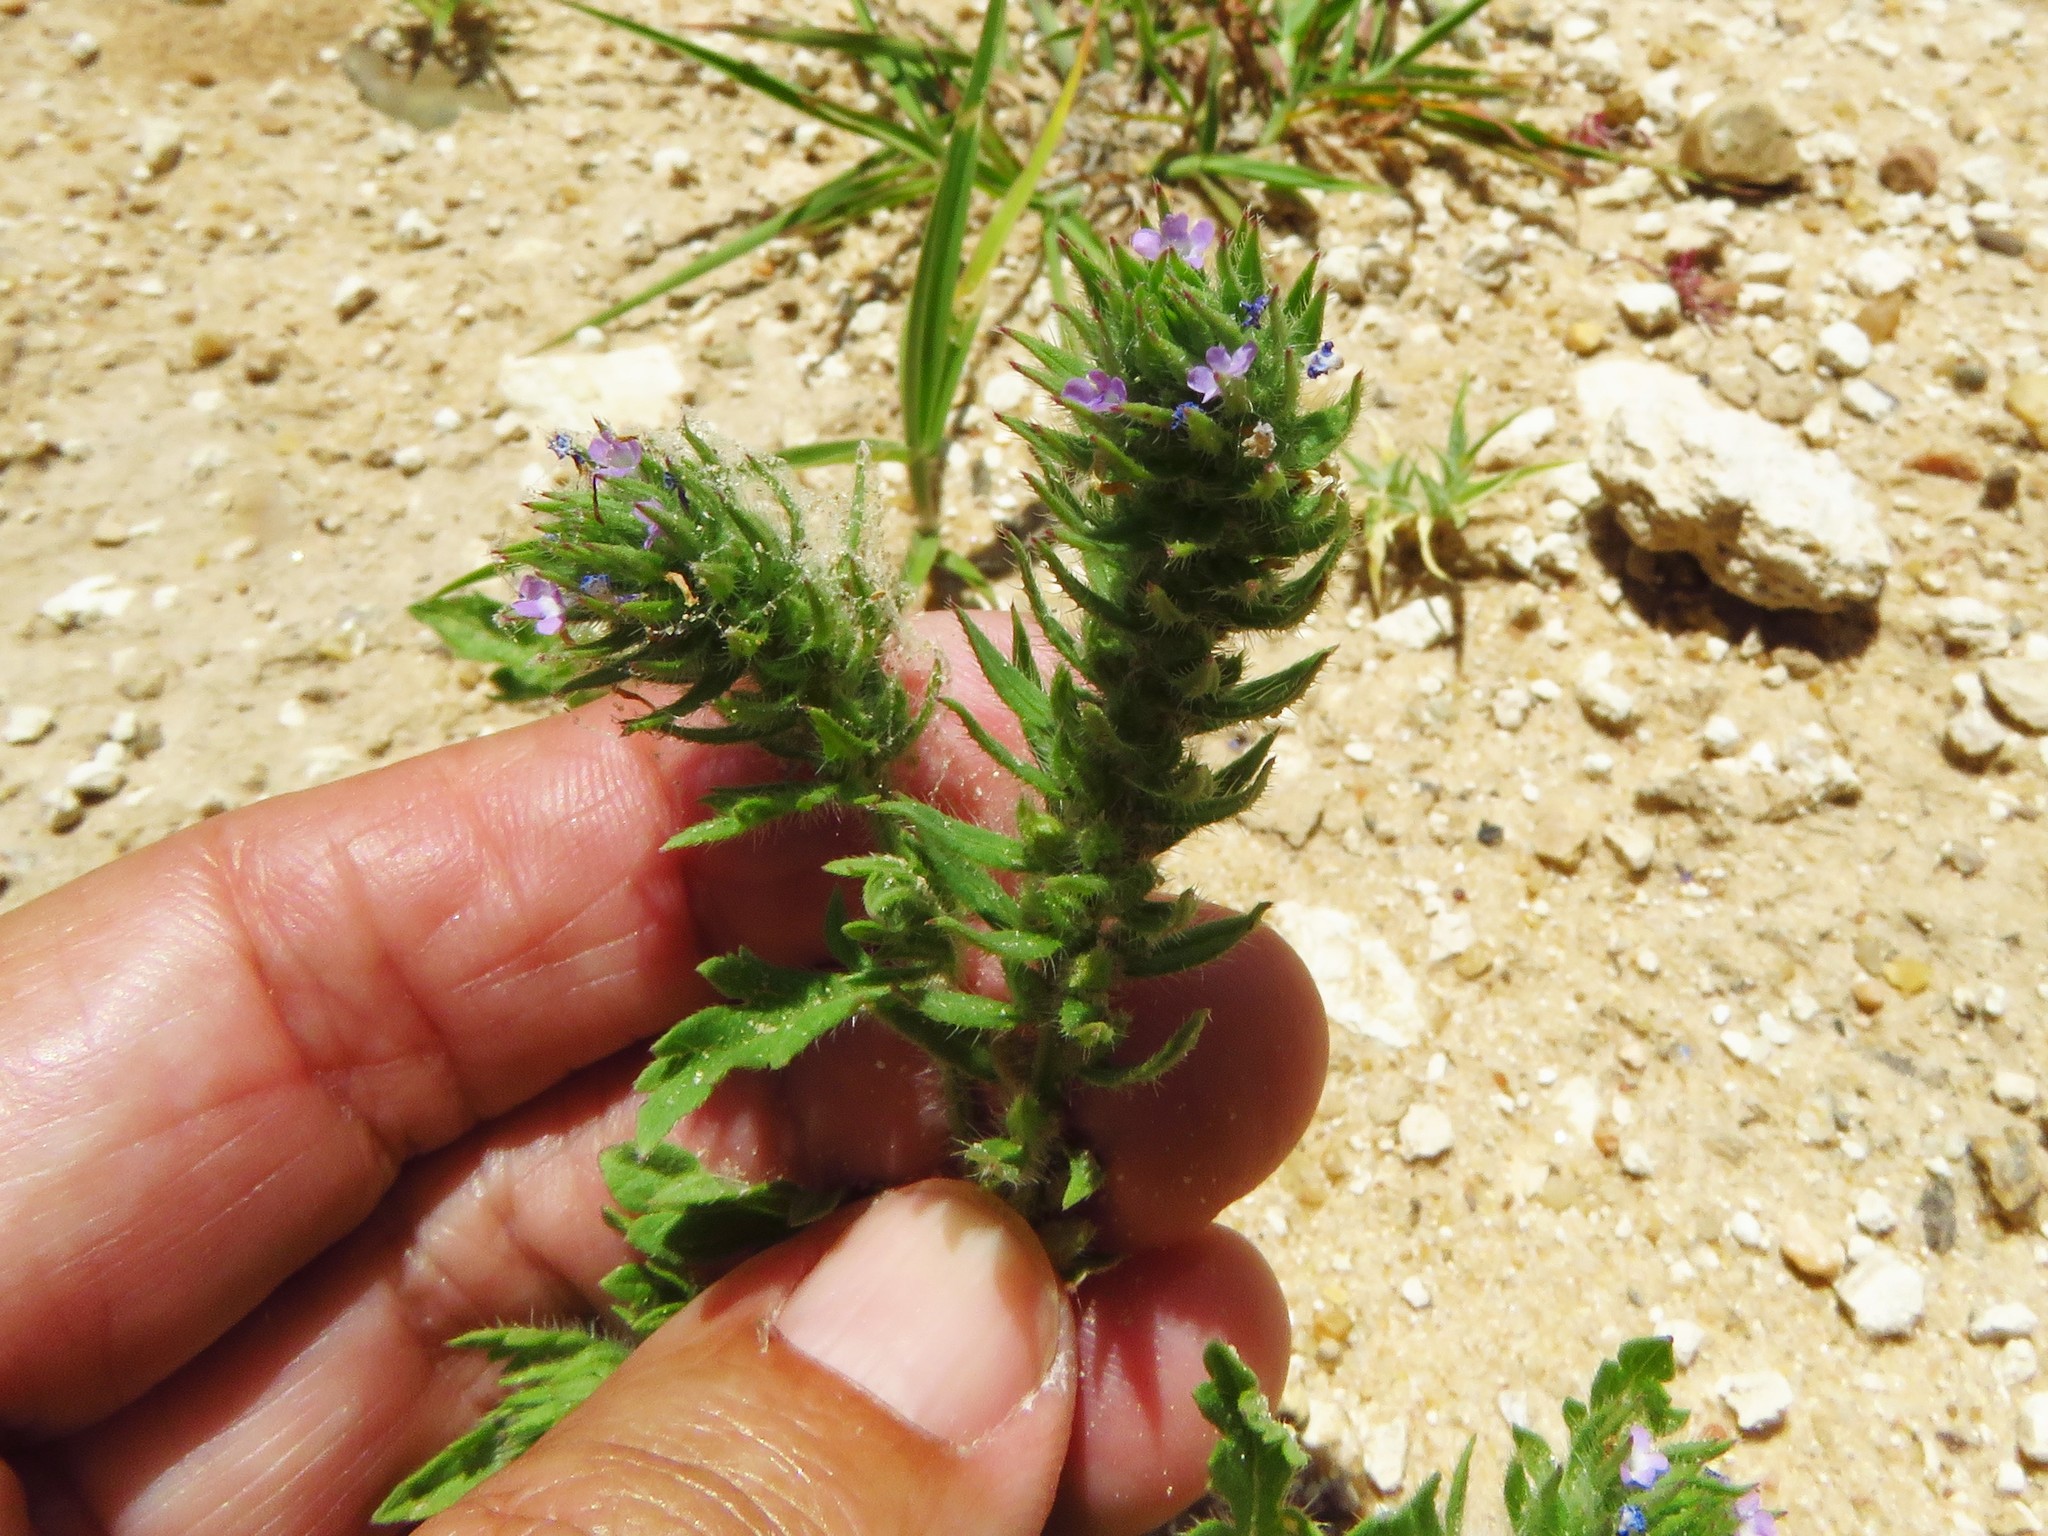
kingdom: Plantae
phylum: Tracheophyta
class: Magnoliopsida
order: Lamiales
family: Verbenaceae
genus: Verbena
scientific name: Verbena bracteata
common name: Bracted vervain
